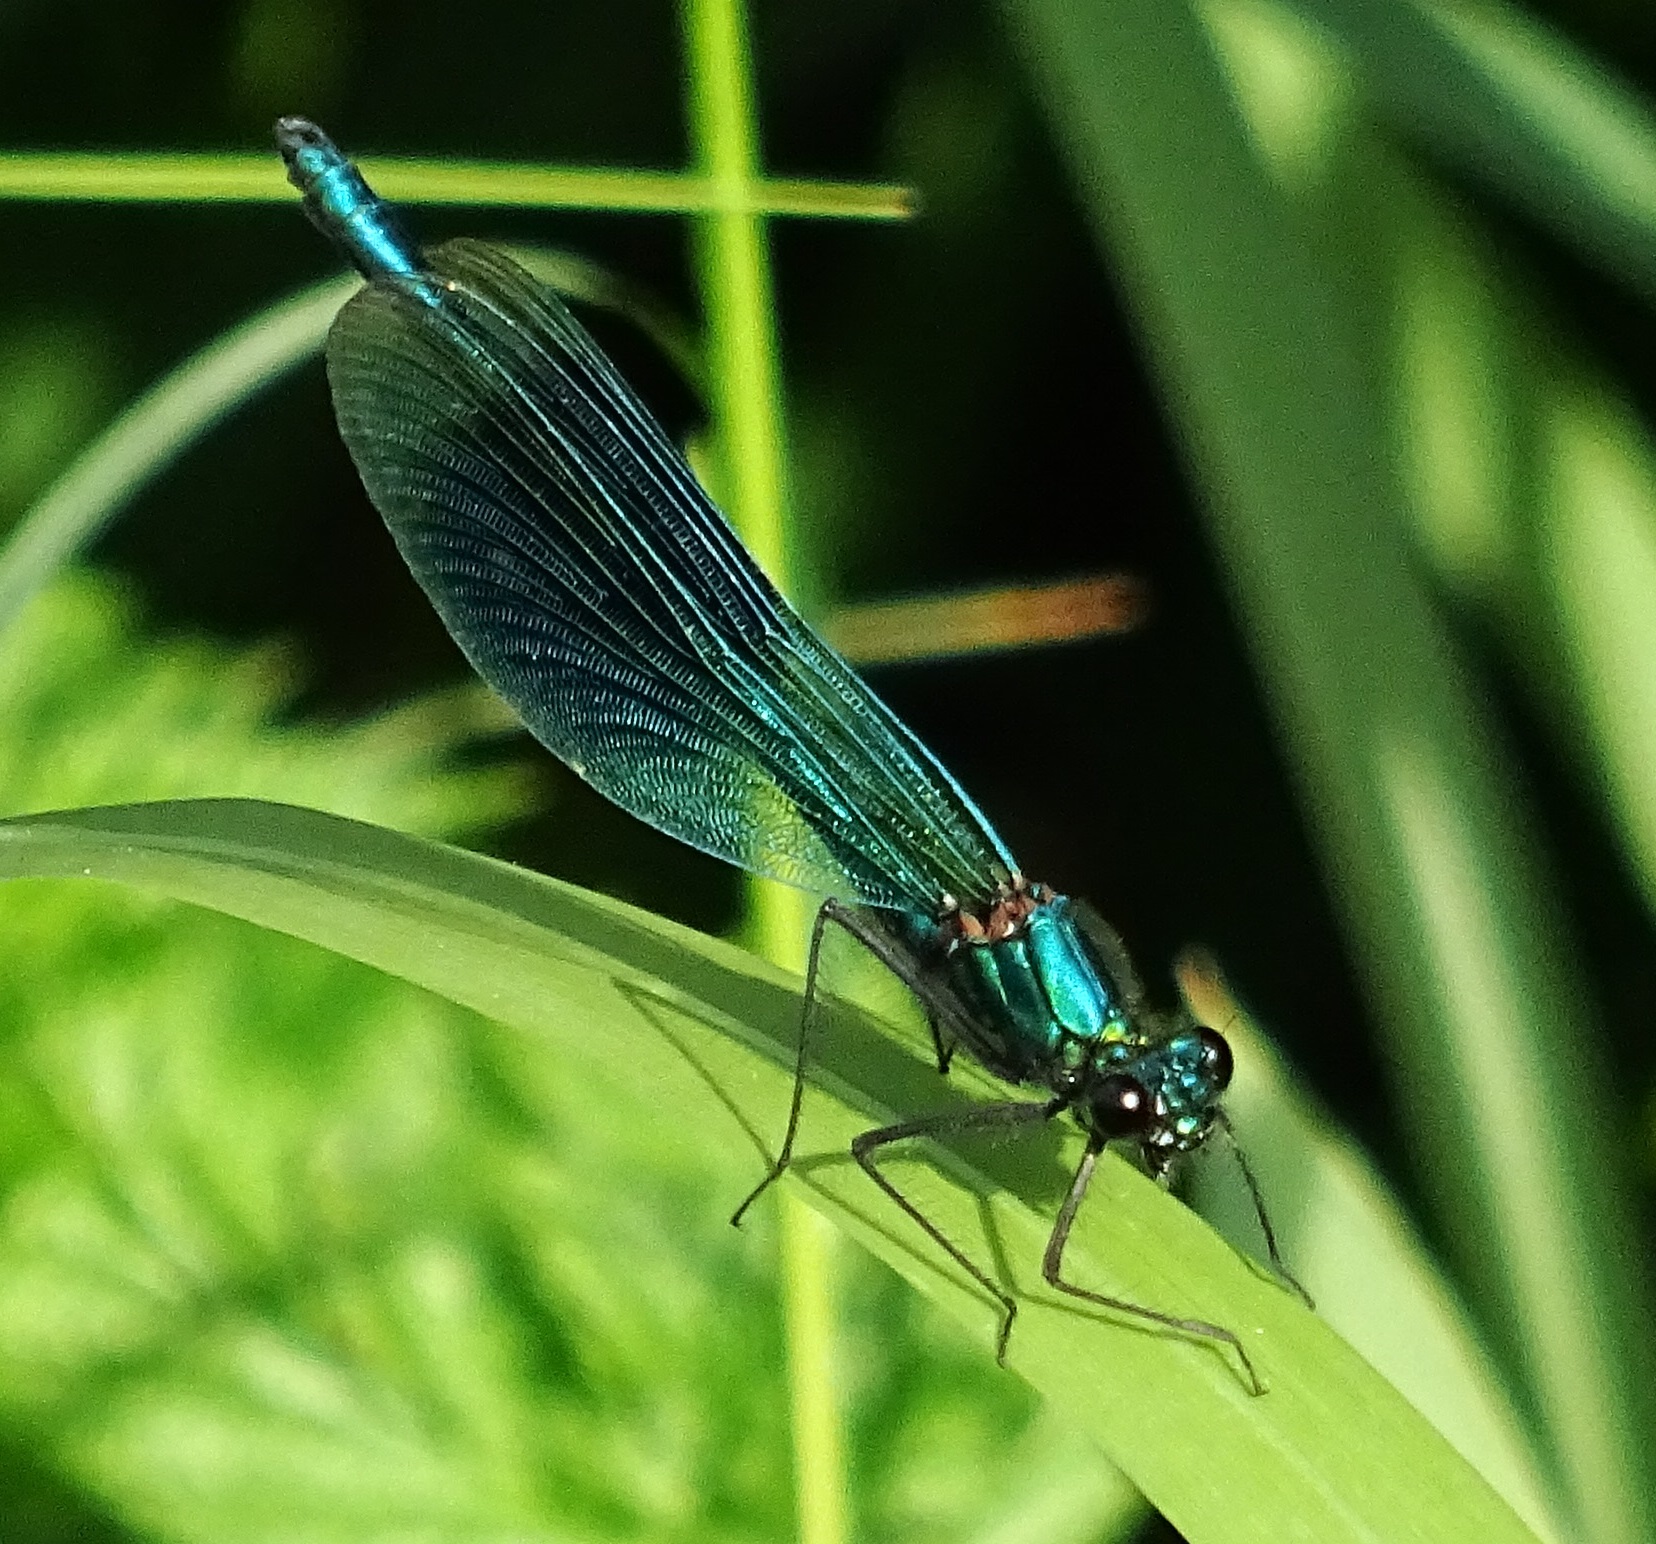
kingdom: Animalia
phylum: Arthropoda
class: Insecta
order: Odonata
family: Calopterygidae
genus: Calopteryx
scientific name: Calopteryx splendens
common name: Banded demoiselle
